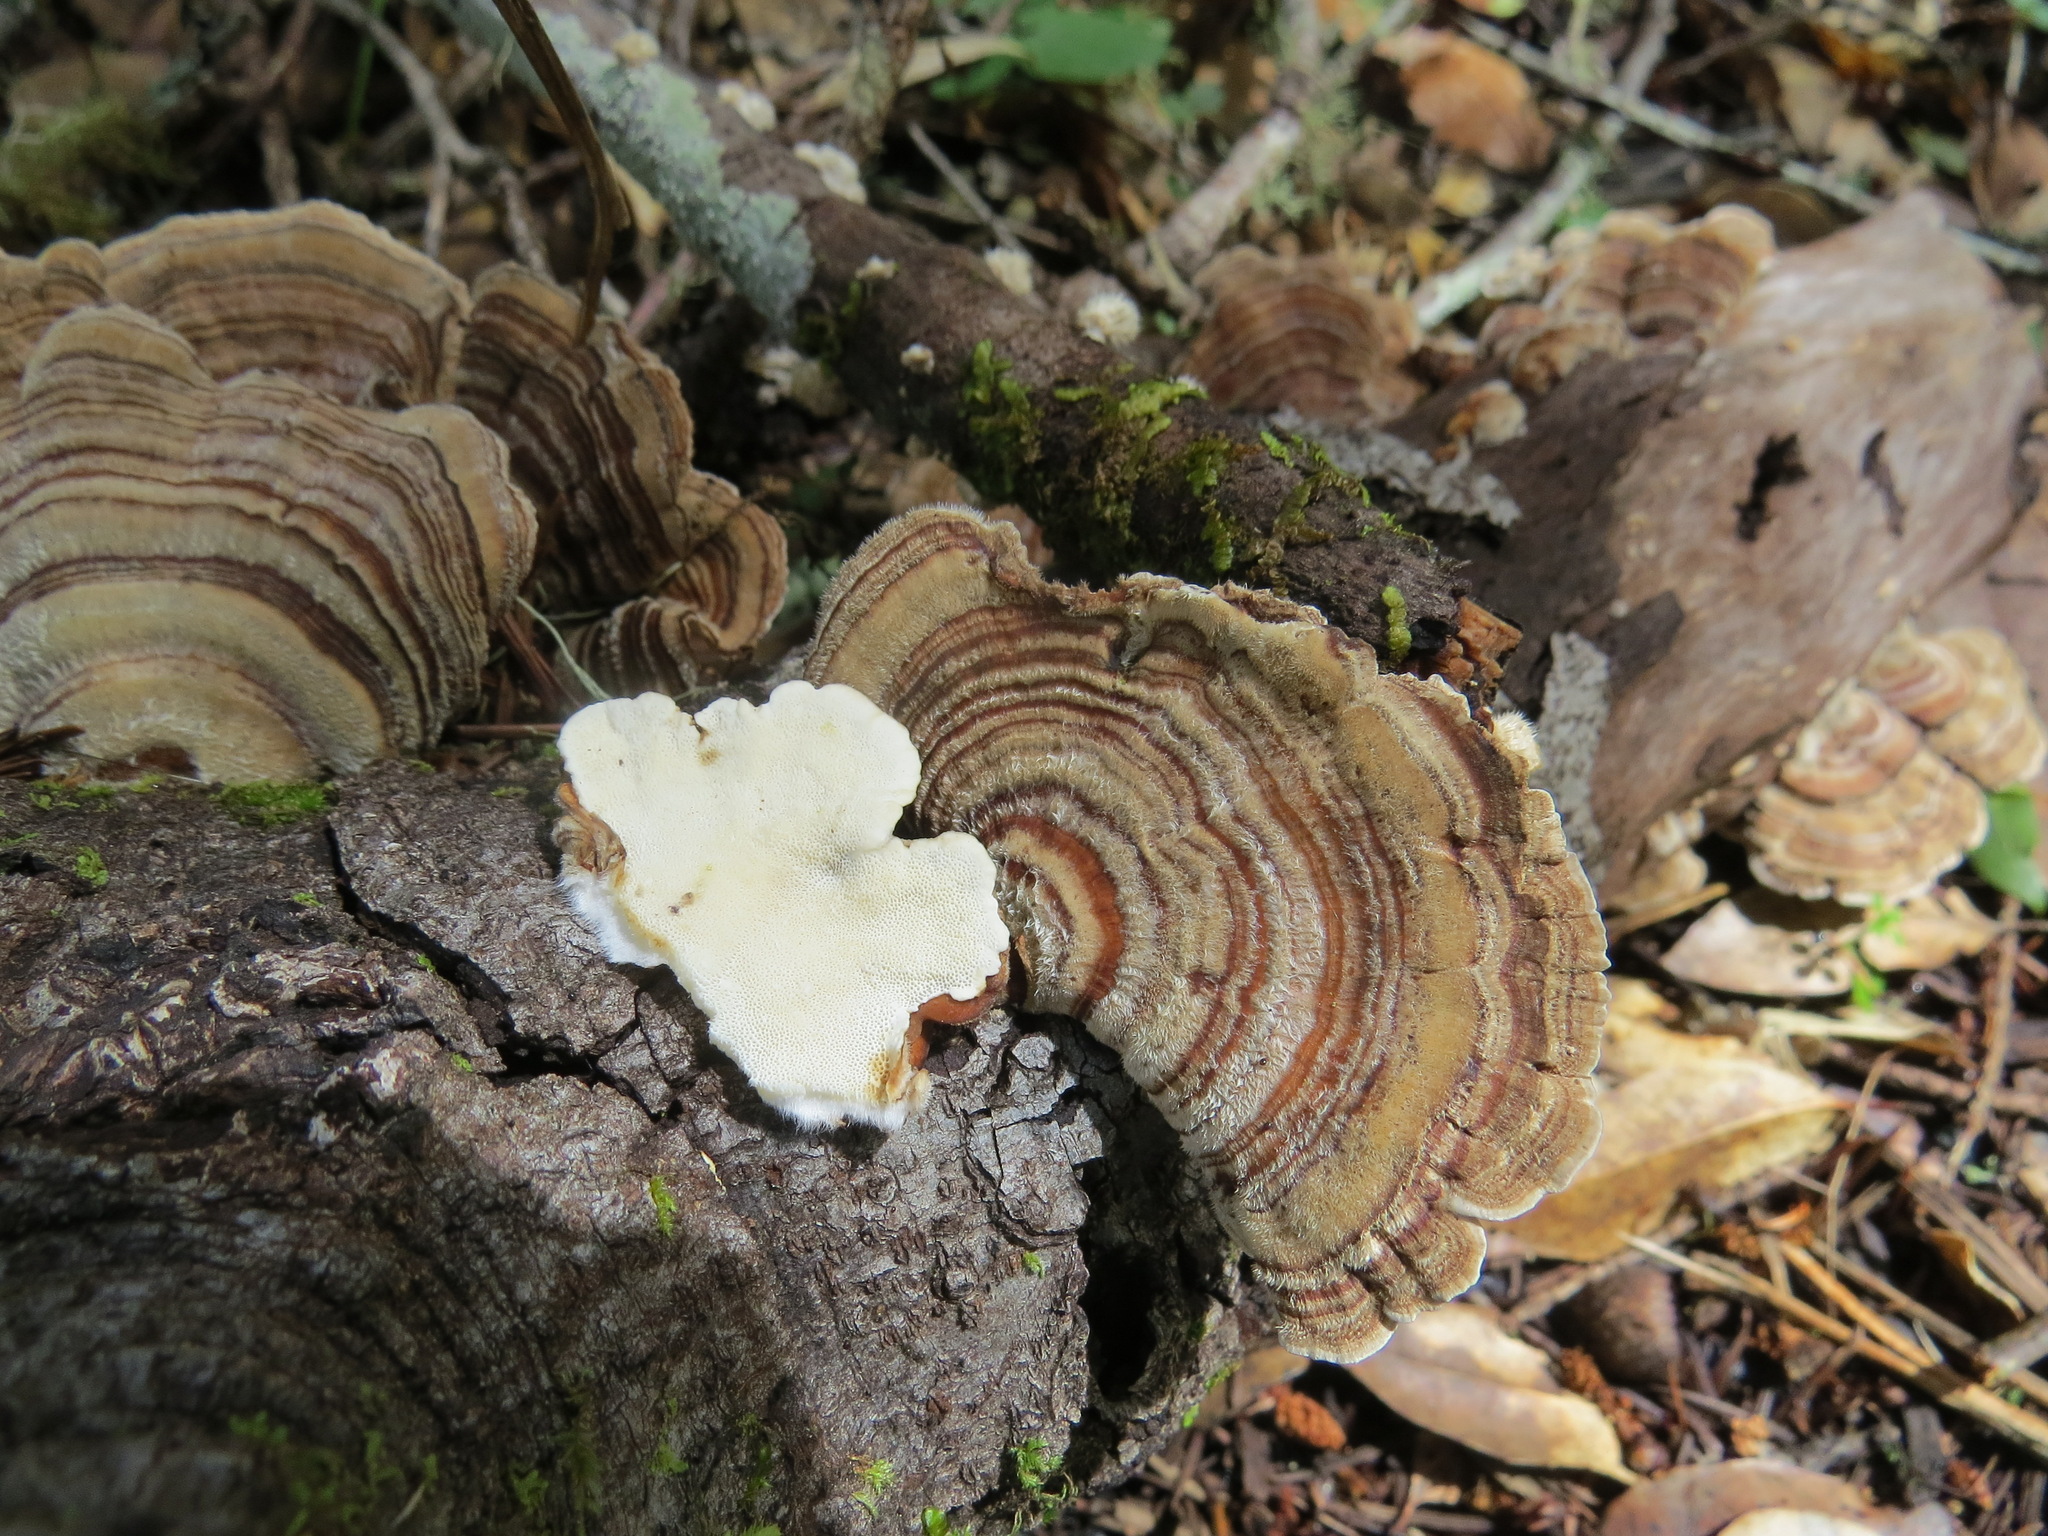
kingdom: Fungi
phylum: Basidiomycota
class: Agaricomycetes
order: Polyporales
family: Polyporaceae
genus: Trametes
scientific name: Trametes versicolor
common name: Turkeytail
